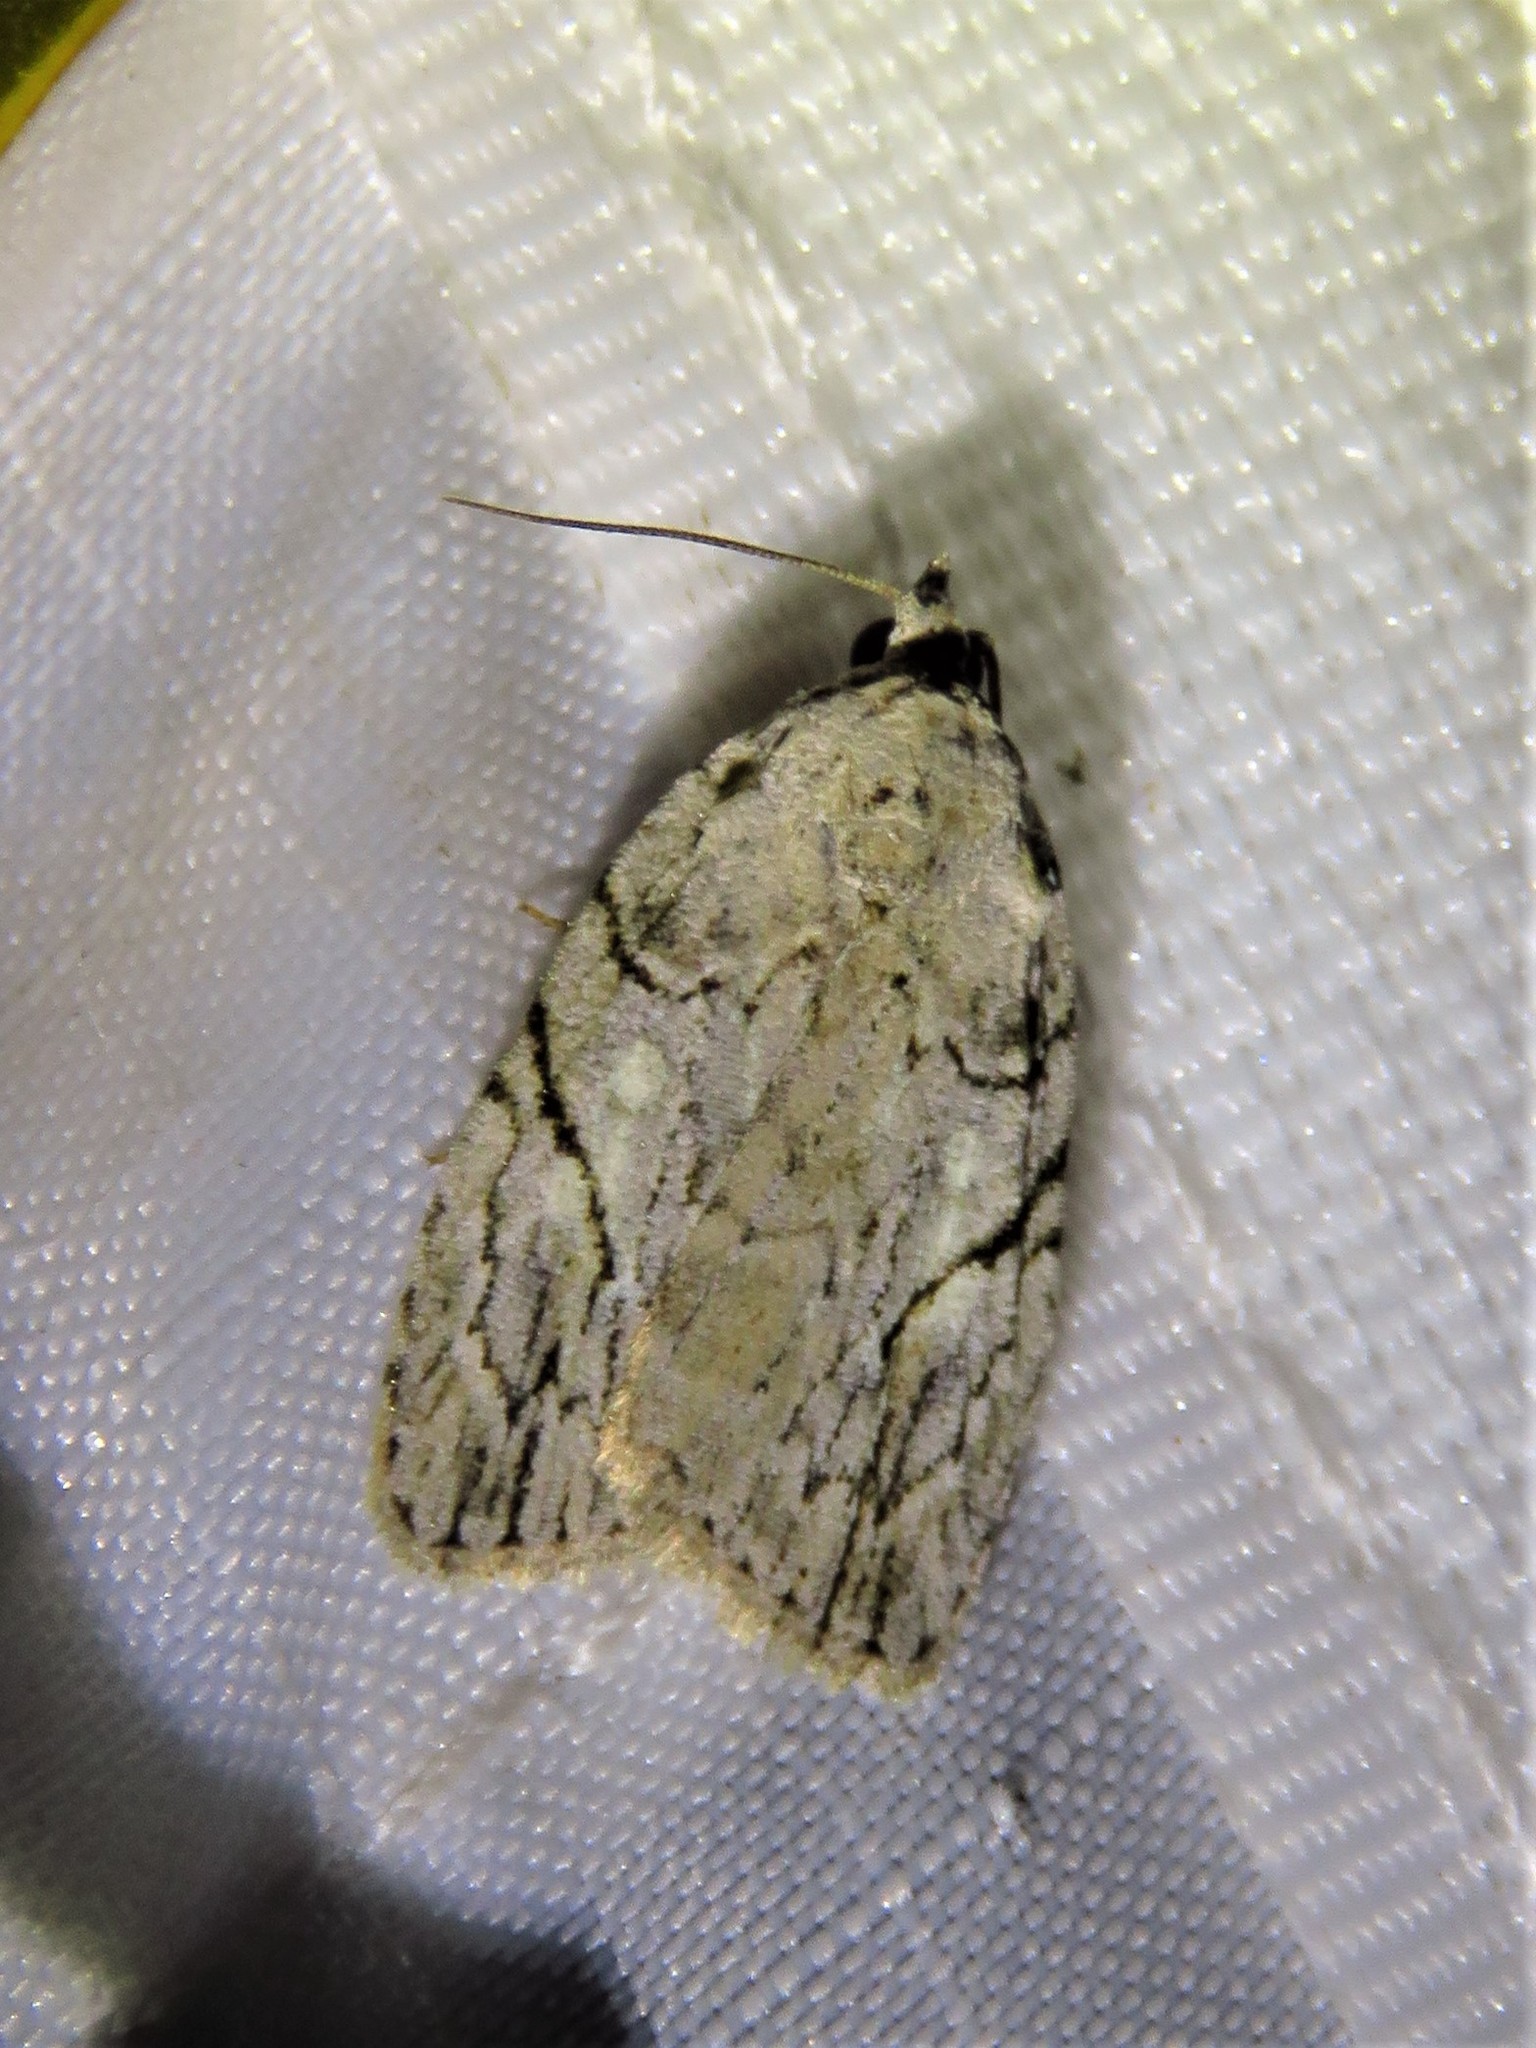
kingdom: Animalia
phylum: Arthropoda
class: Insecta
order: Lepidoptera
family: Noctuidae
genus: Balsa
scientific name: Balsa labecula
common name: White-blotched balsa moth
